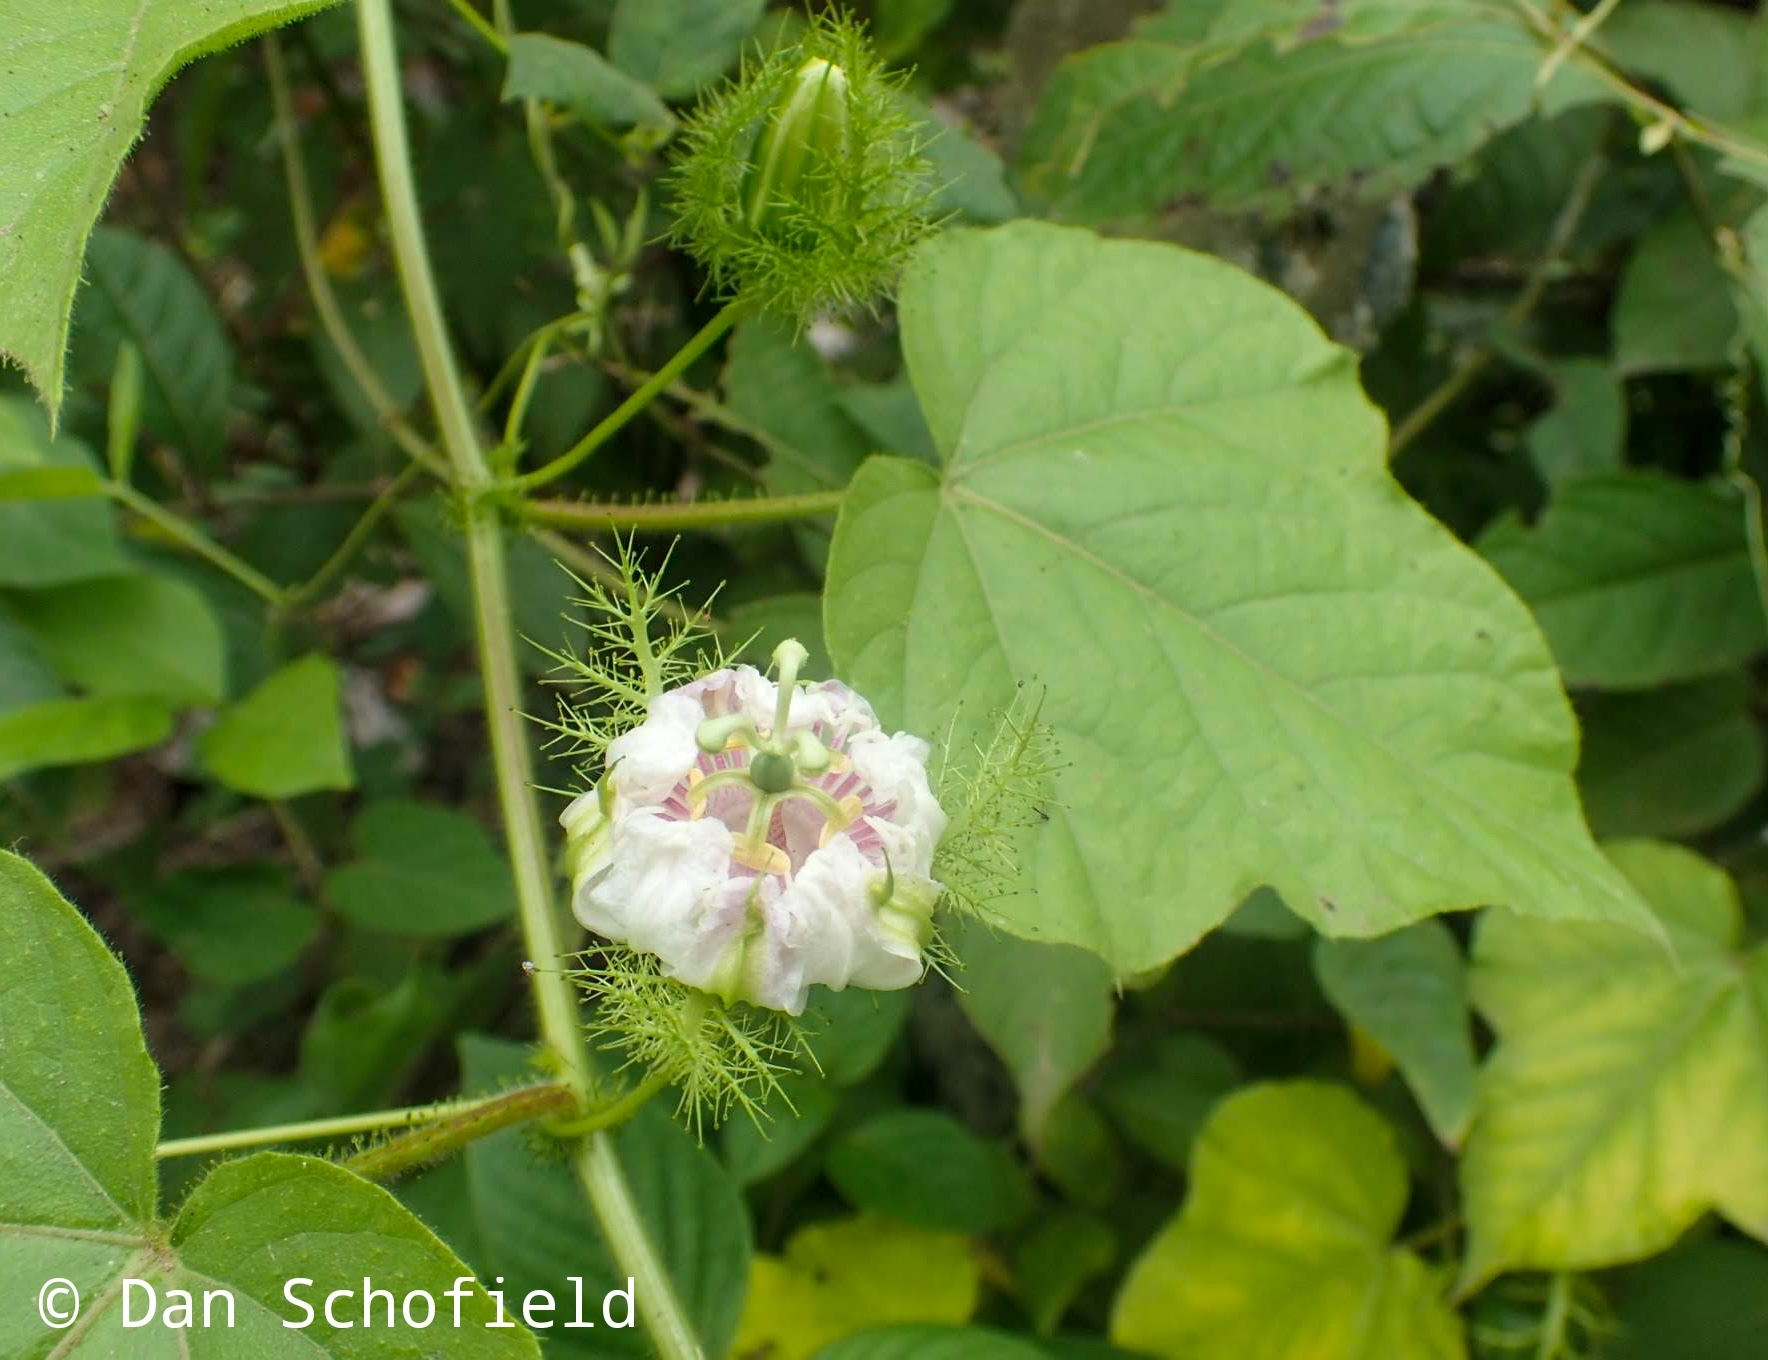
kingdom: Plantae
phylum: Tracheophyta
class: Magnoliopsida
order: Malpighiales
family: Passifloraceae
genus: Passiflora
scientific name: Passiflora foetida
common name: Fetid passionflower
